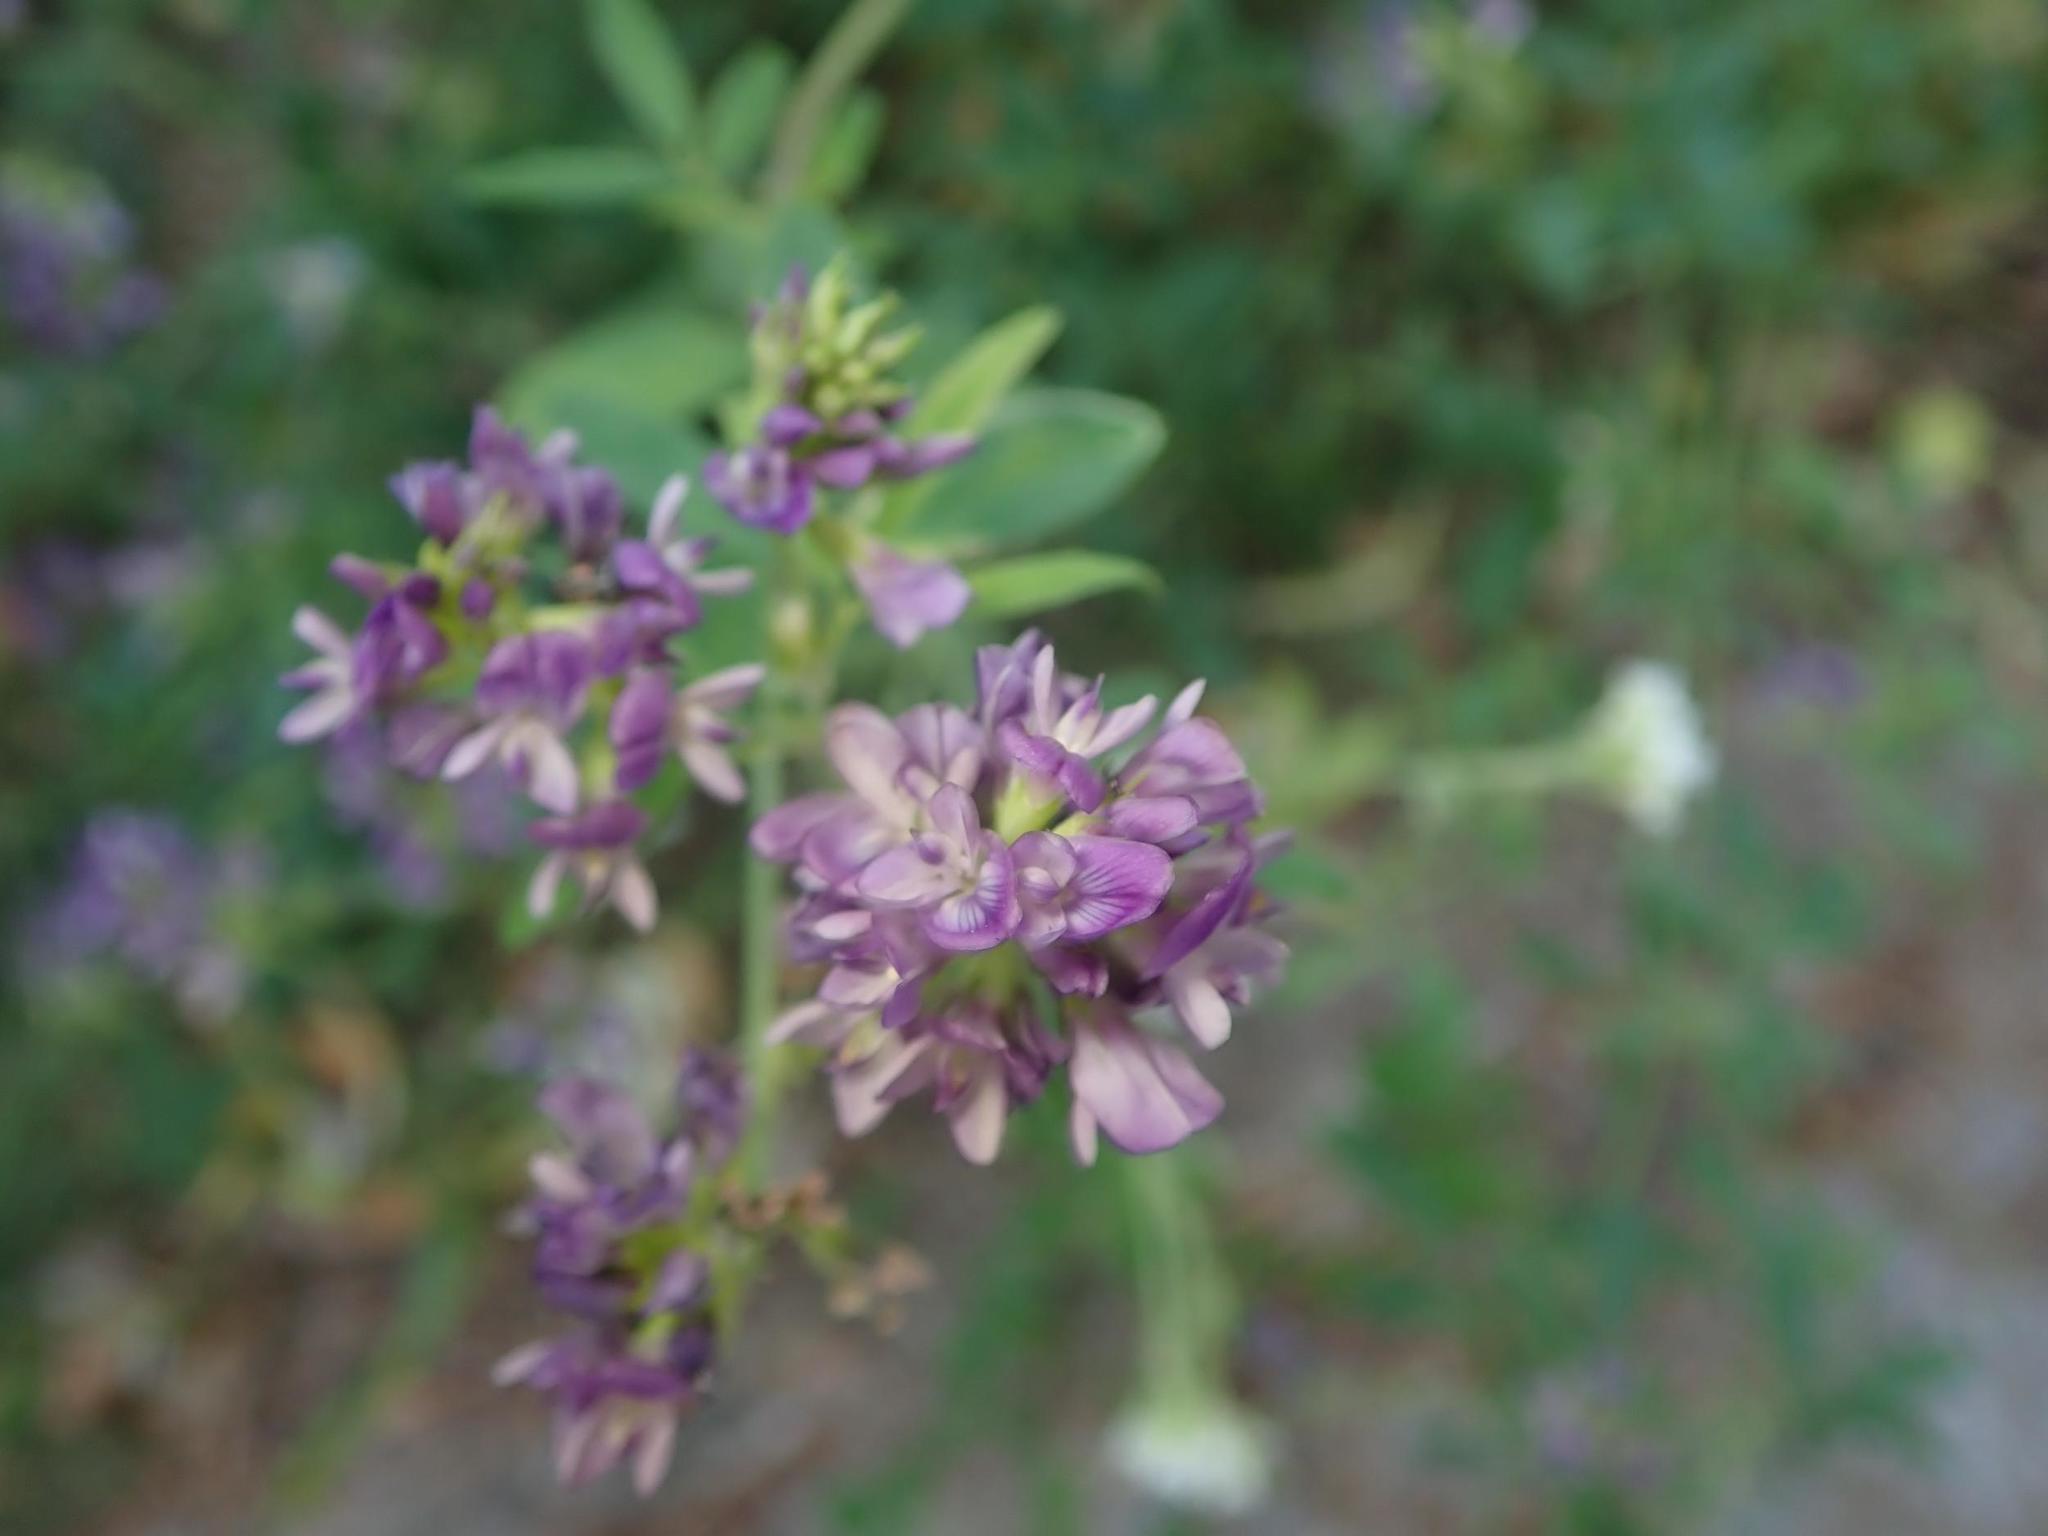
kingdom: Plantae
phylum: Tracheophyta
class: Magnoliopsida
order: Fabales
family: Fabaceae
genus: Medicago
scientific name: Medicago varia
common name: Sand lucerne
